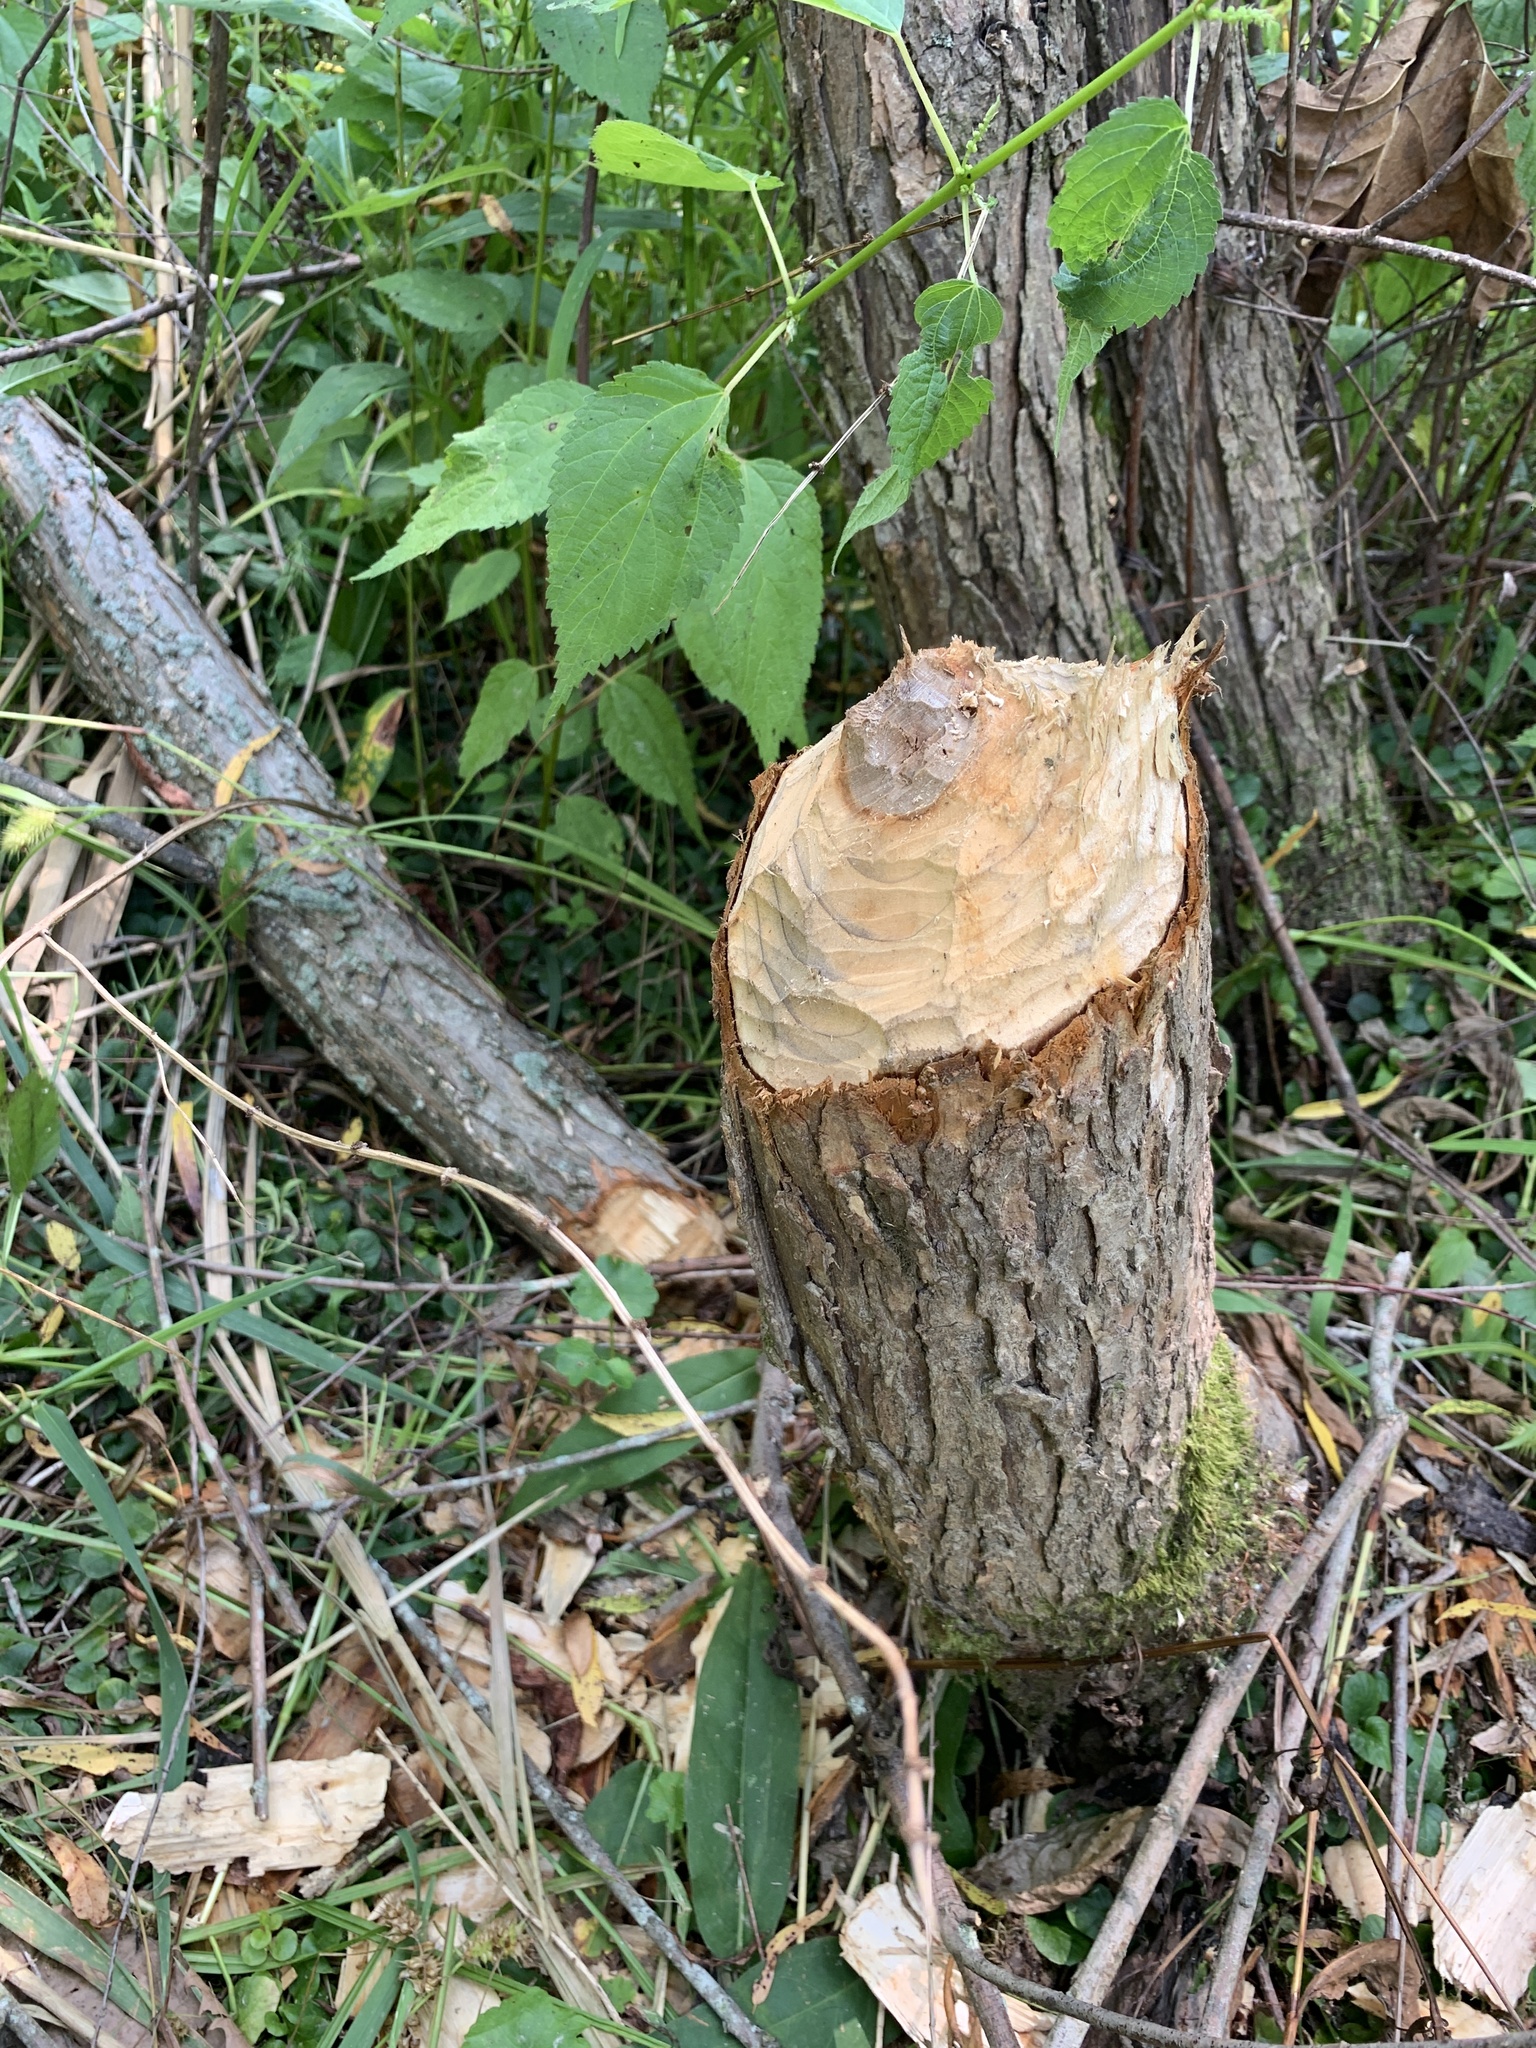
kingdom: Animalia
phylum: Chordata
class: Mammalia
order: Rodentia
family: Castoridae
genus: Castor
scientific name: Castor canadensis
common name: American beaver
